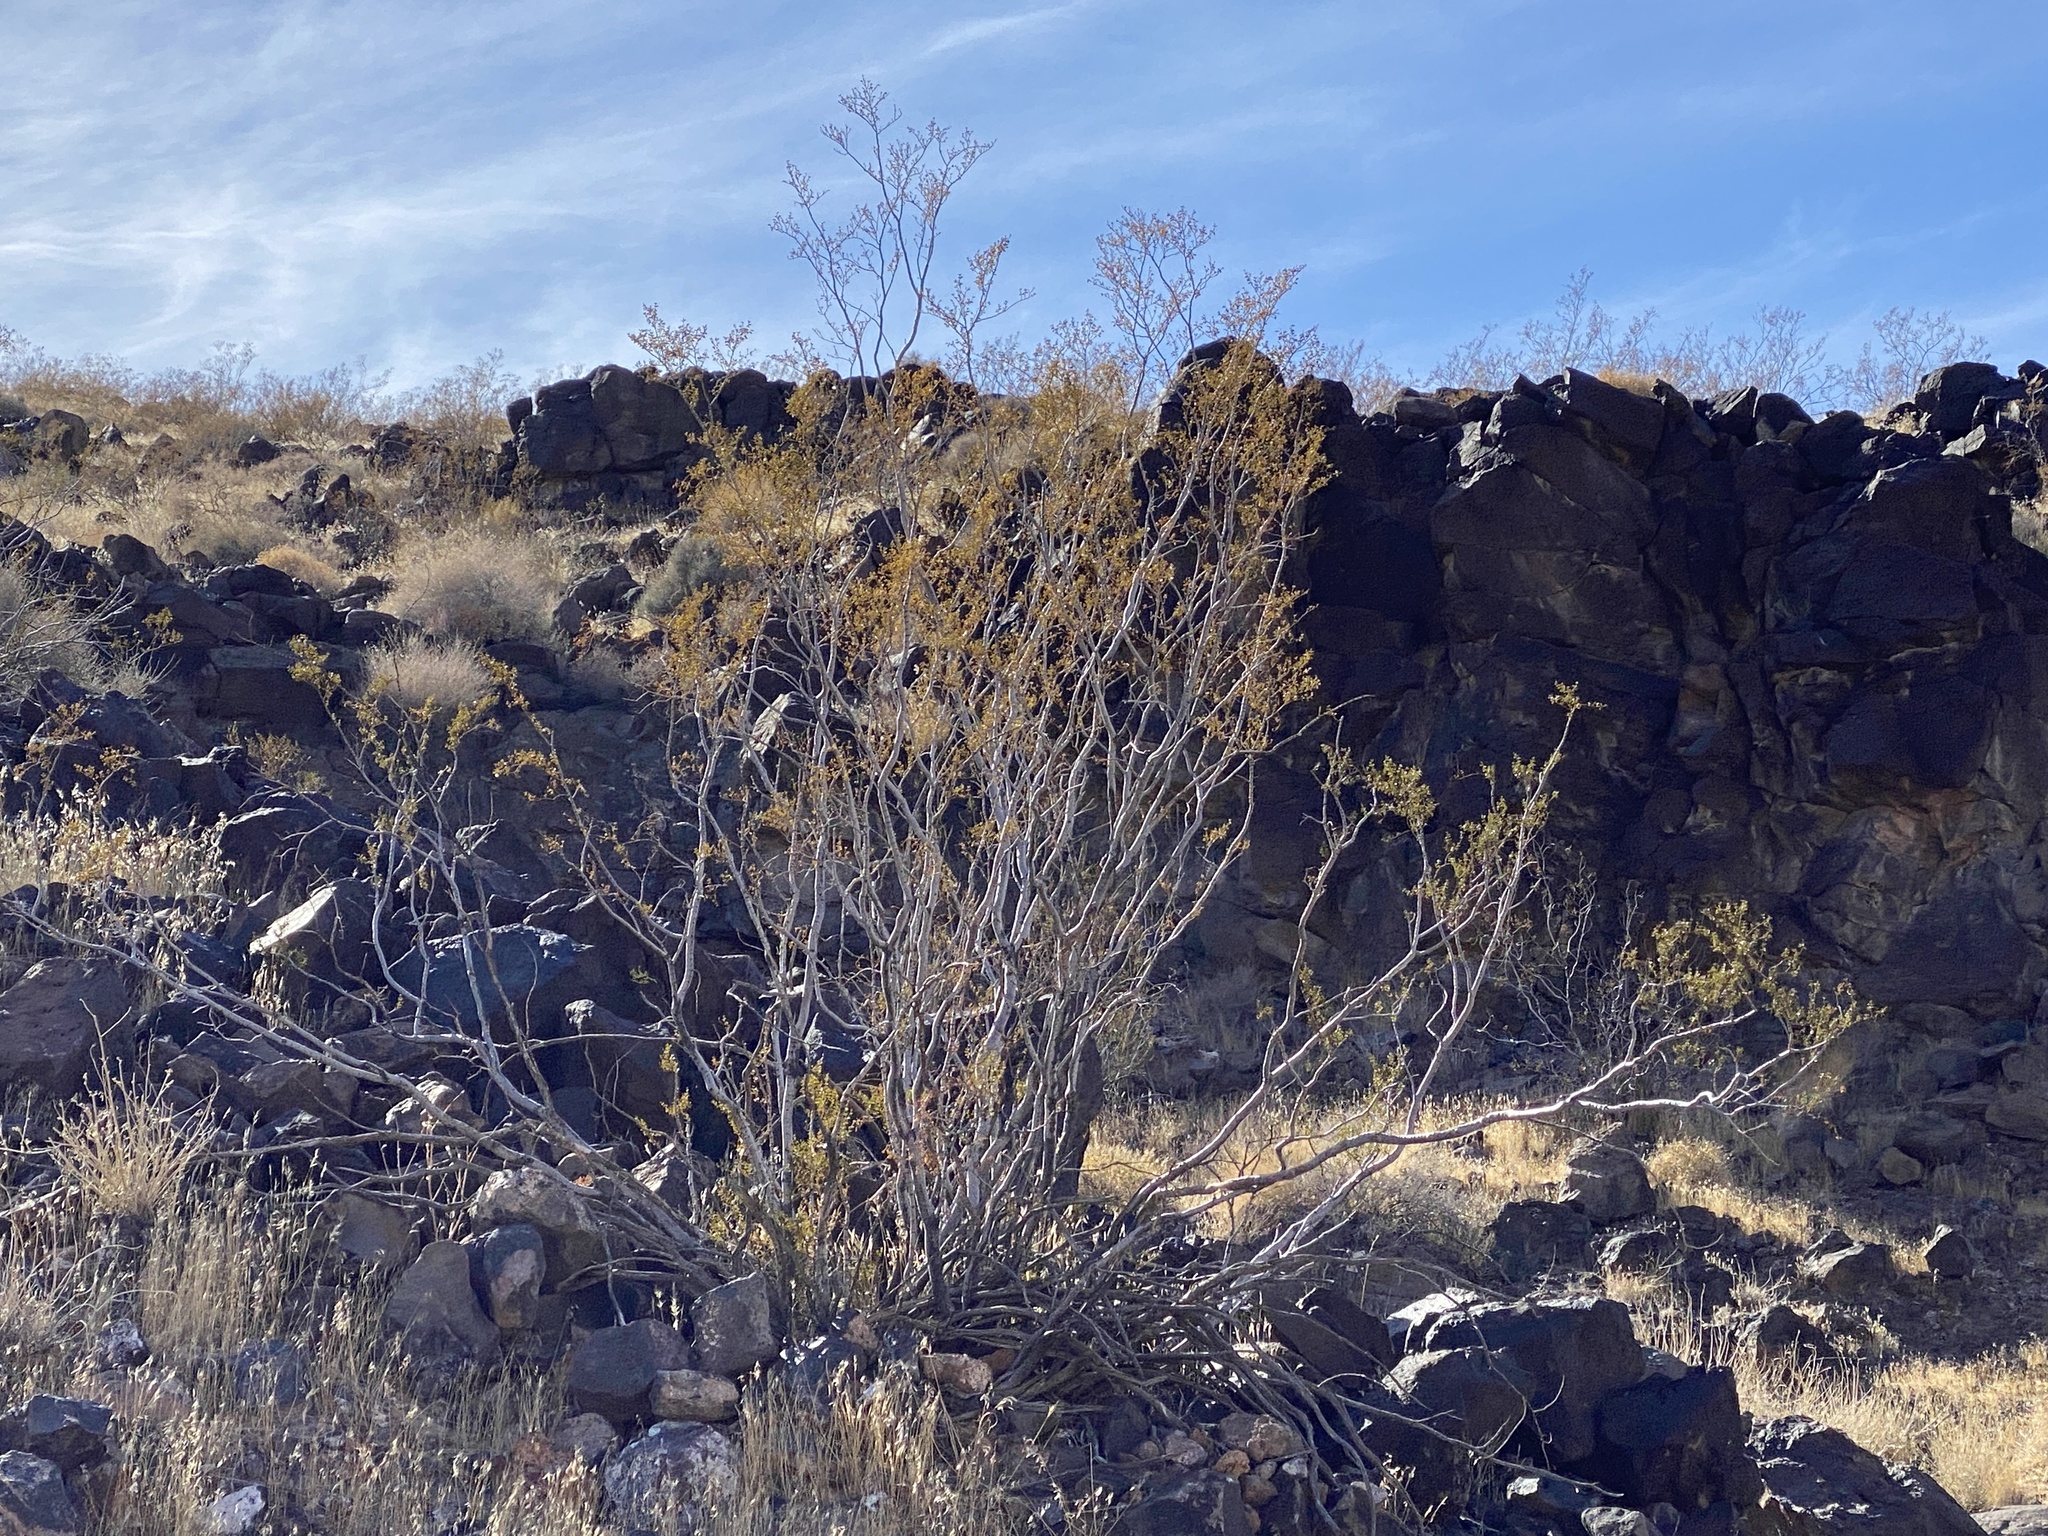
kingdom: Plantae
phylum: Tracheophyta
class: Magnoliopsida
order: Zygophyllales
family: Zygophyllaceae
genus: Larrea
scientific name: Larrea tridentata
